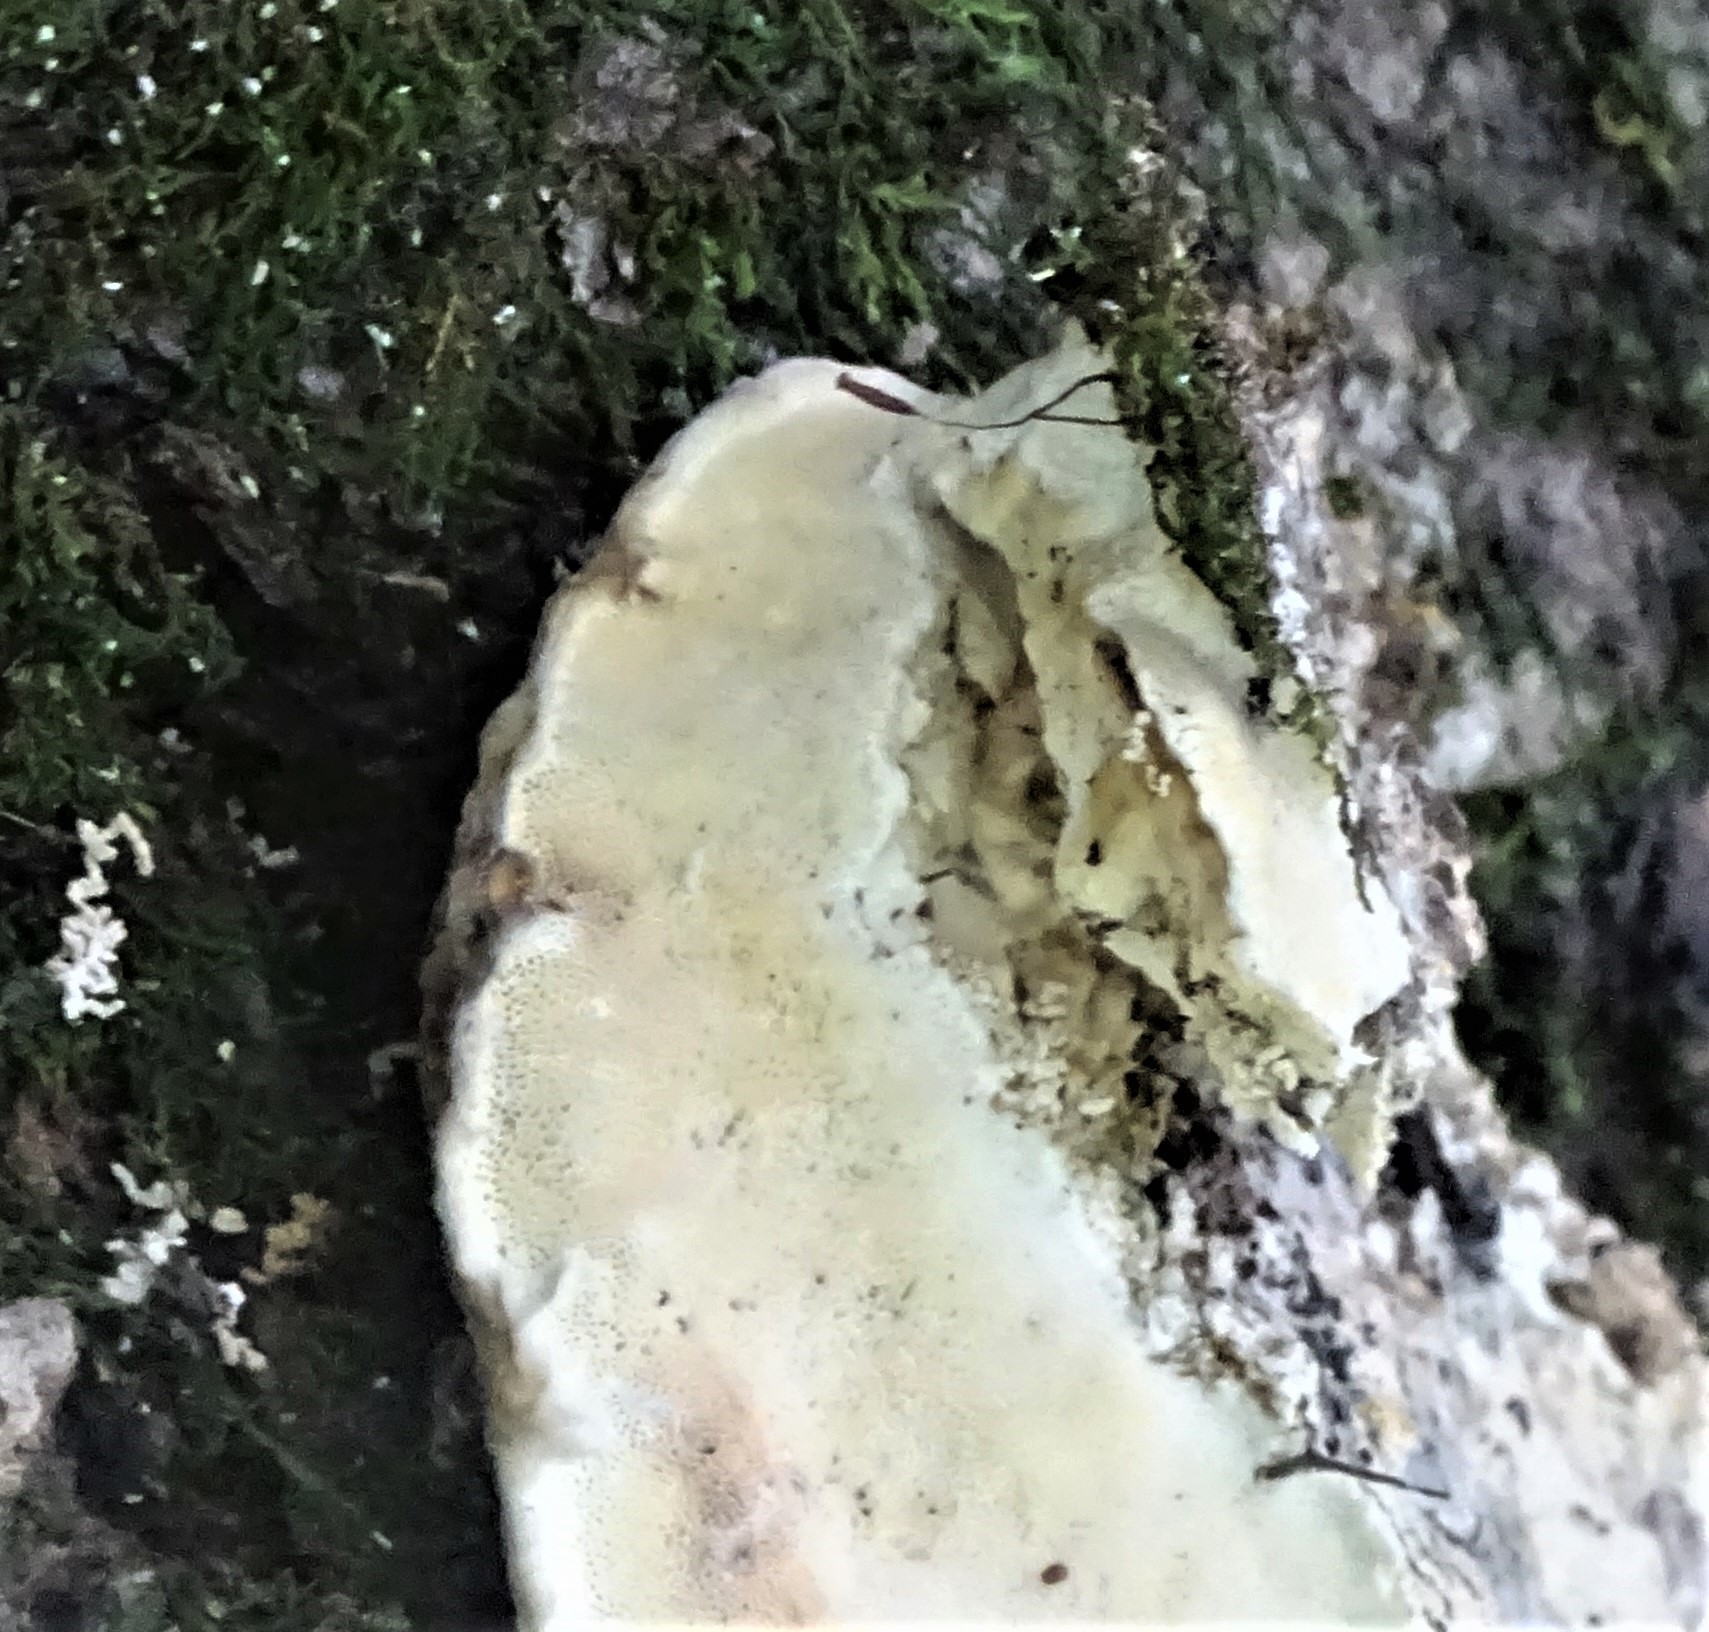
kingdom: Fungi
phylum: Basidiomycota
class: Agaricomycetes
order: Hymenochaetales
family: Oxyporaceae
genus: Oxyporus
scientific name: Oxyporus populinus
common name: Poplar bracket
